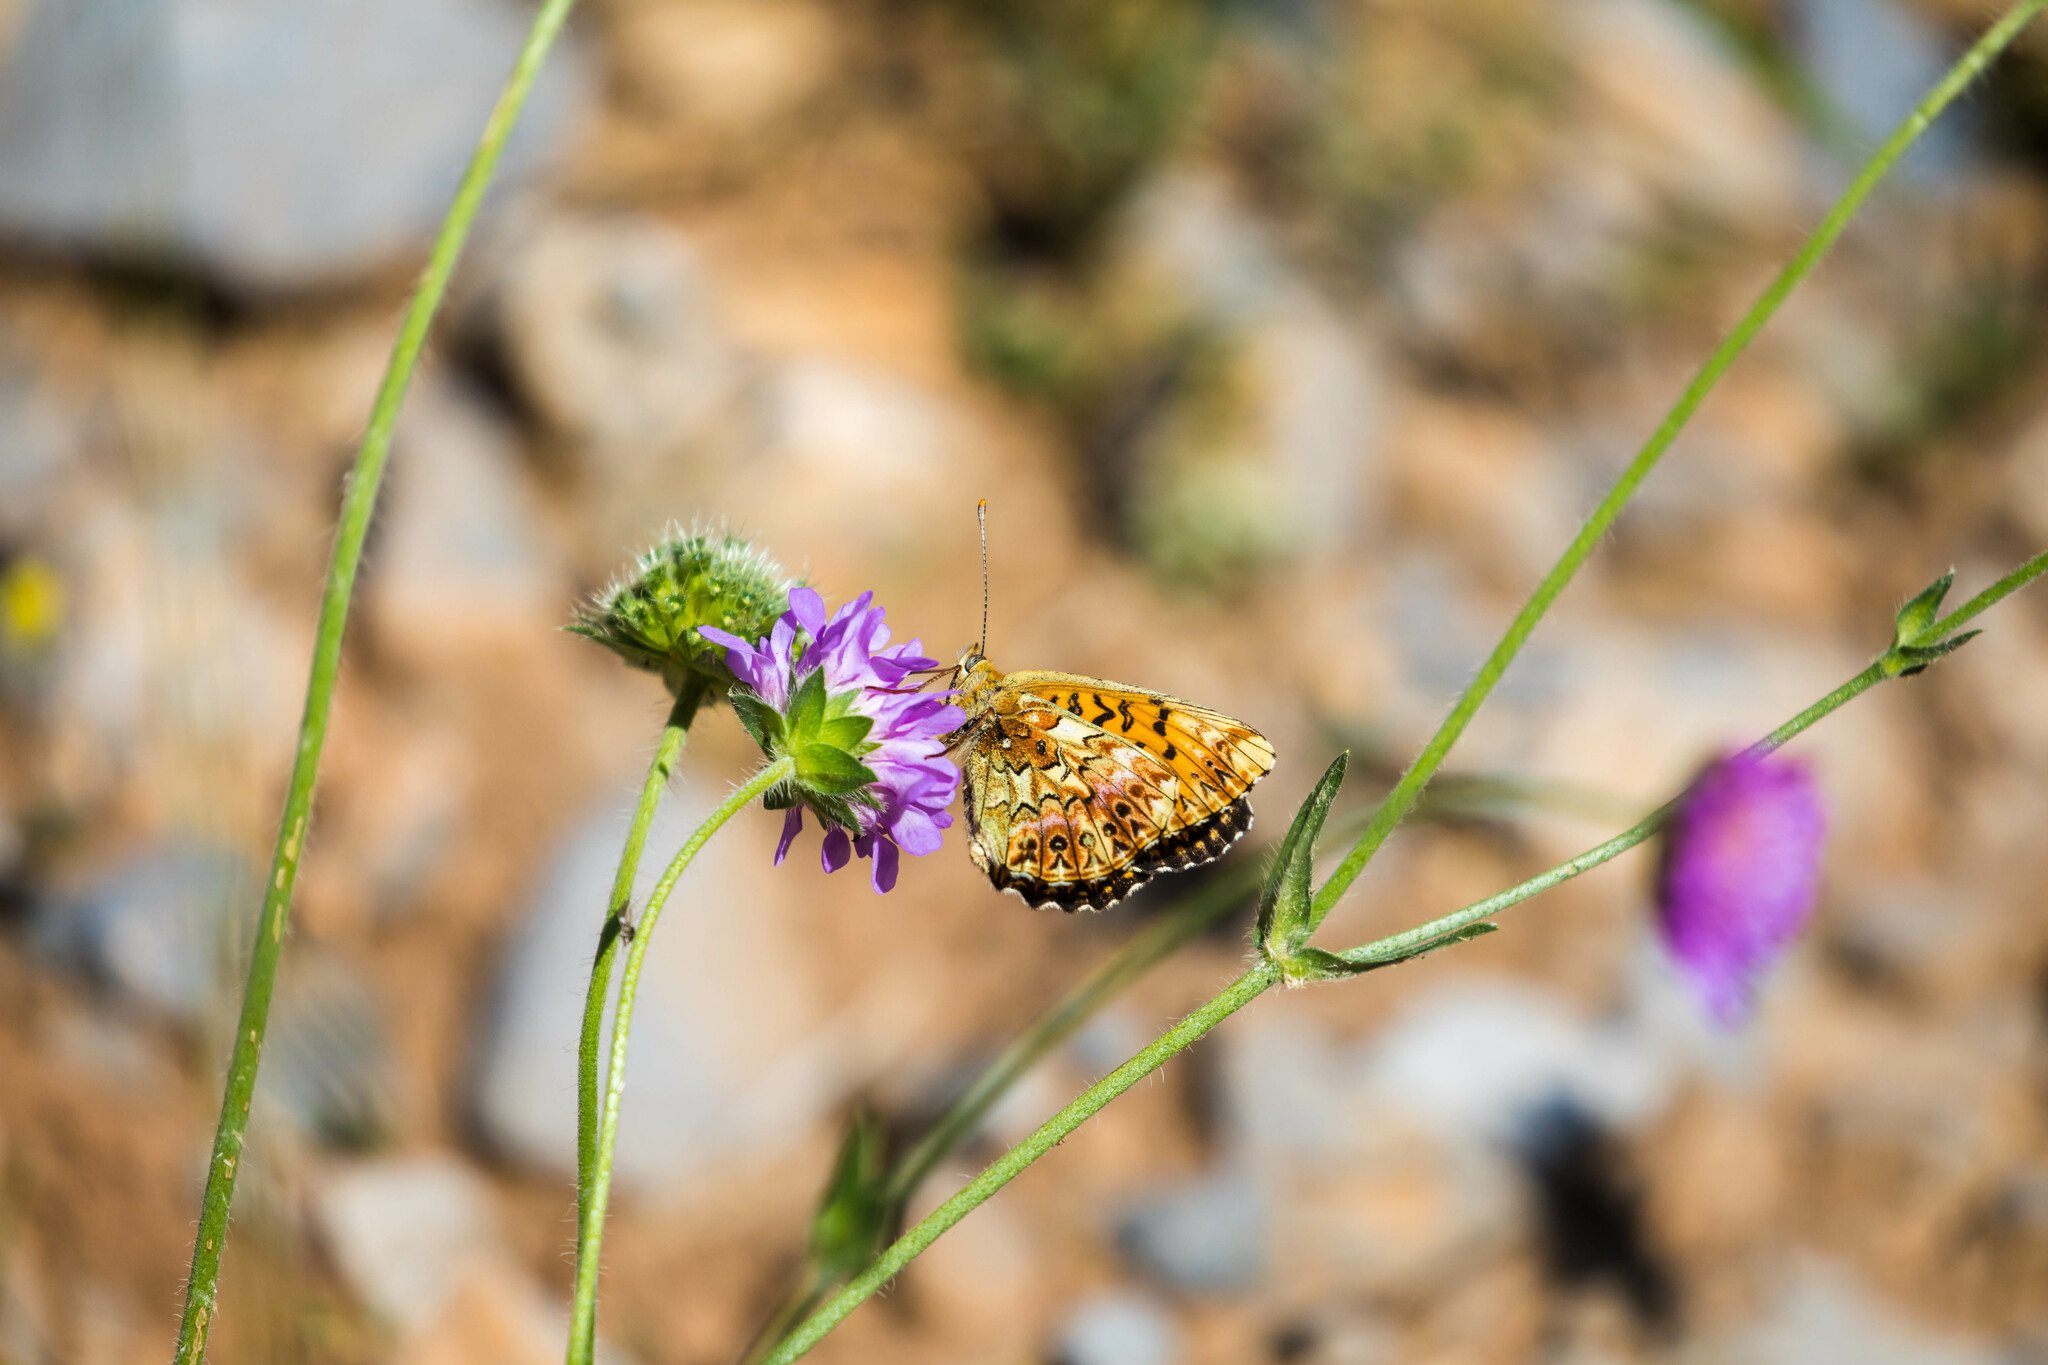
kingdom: Animalia
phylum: Arthropoda
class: Insecta
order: Lepidoptera
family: Nymphalidae
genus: Boloria
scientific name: Boloria titania
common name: Titania's fritillary
